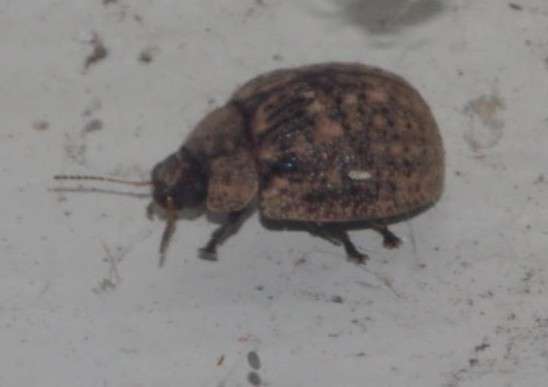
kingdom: Animalia
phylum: Arthropoda
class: Insecta
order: Coleoptera
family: Chrysomelidae
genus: Trachymela
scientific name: Trachymela sloanei
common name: Australian tortoise beetle
